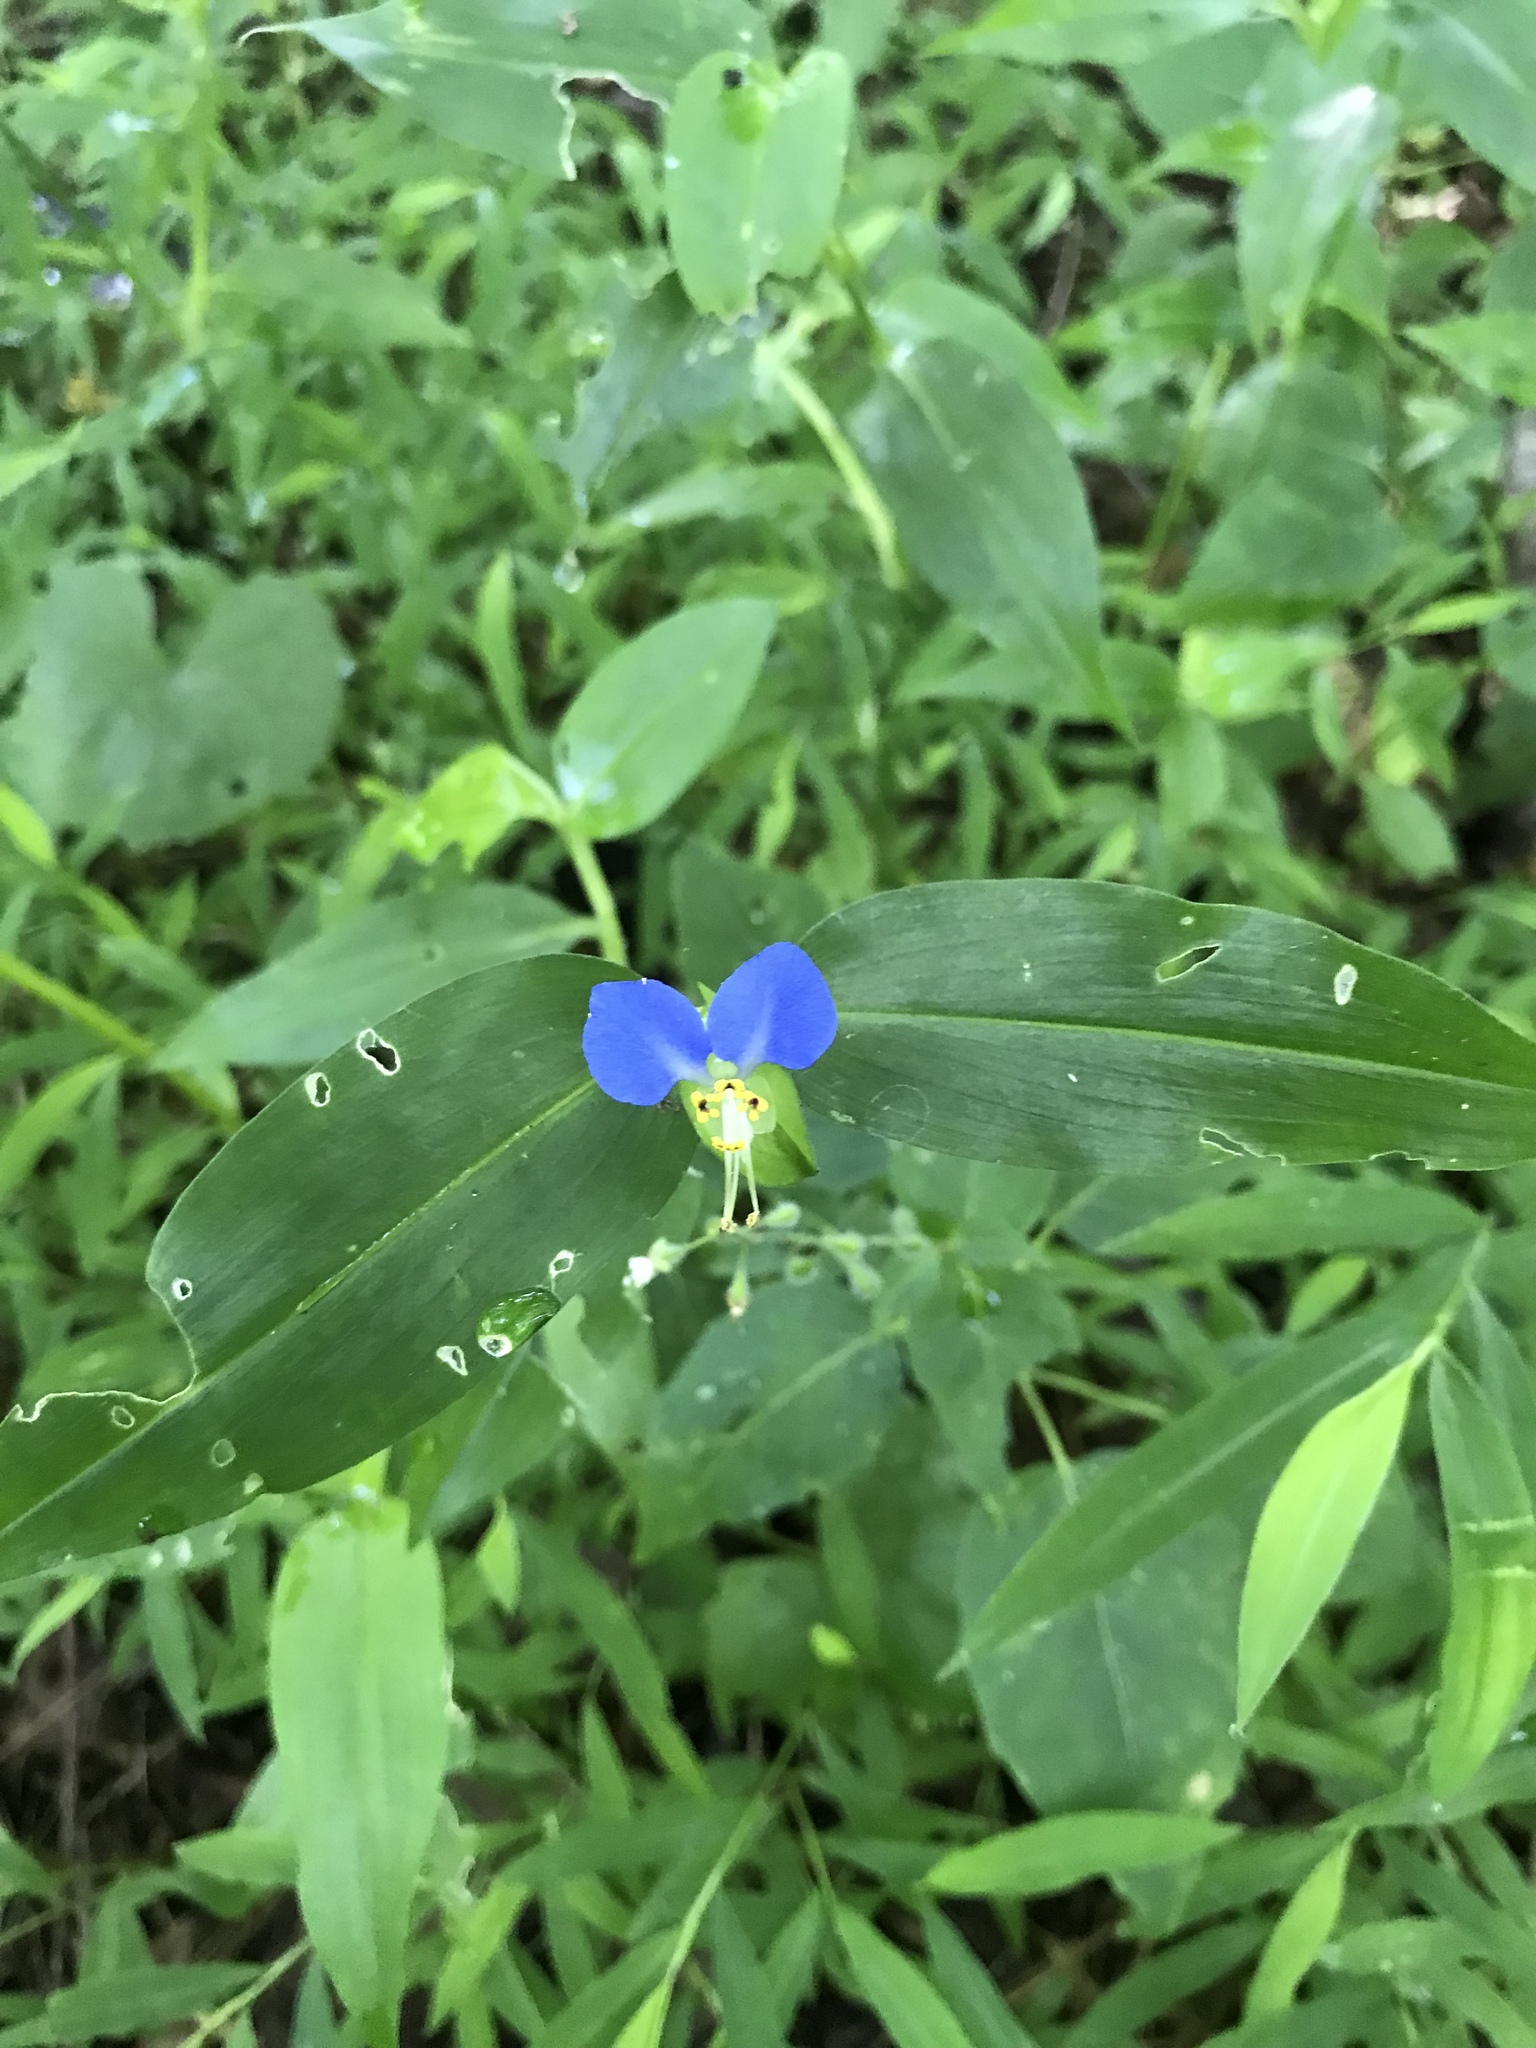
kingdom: Plantae
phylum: Tracheophyta
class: Liliopsida
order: Commelinales
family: Commelinaceae
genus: Commelina
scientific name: Commelina communis
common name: Asiatic dayflower
